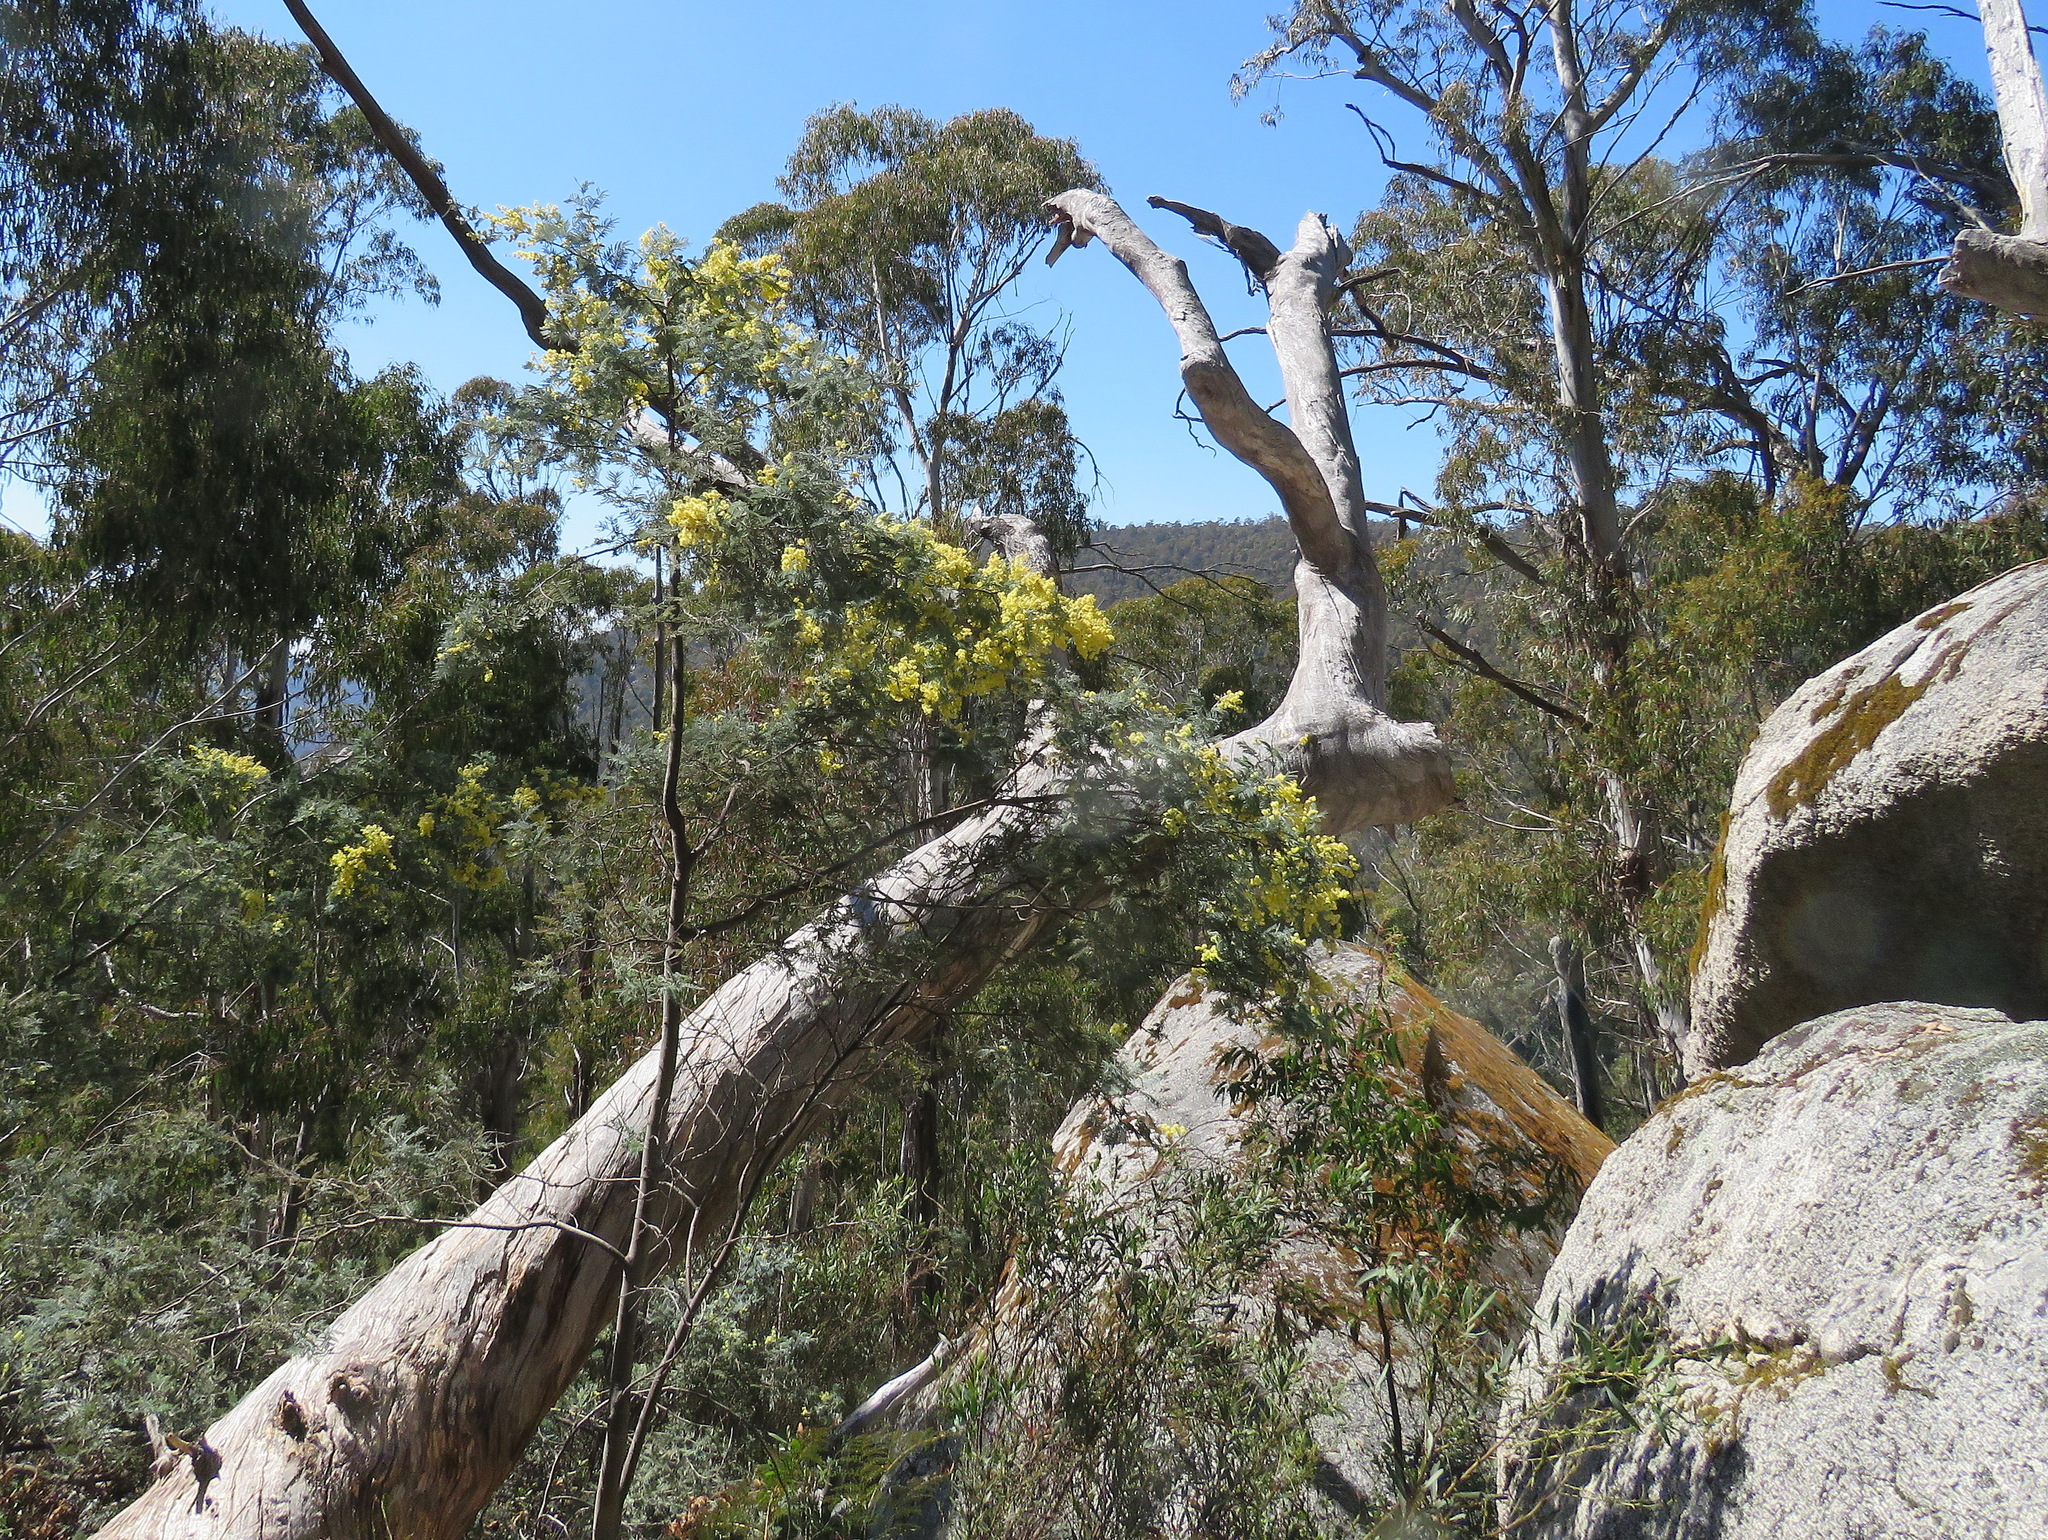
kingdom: Plantae
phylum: Tracheophyta
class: Magnoliopsida
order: Fabales
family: Fabaceae
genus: Acacia
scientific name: Acacia dealbata
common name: Silver wattle
